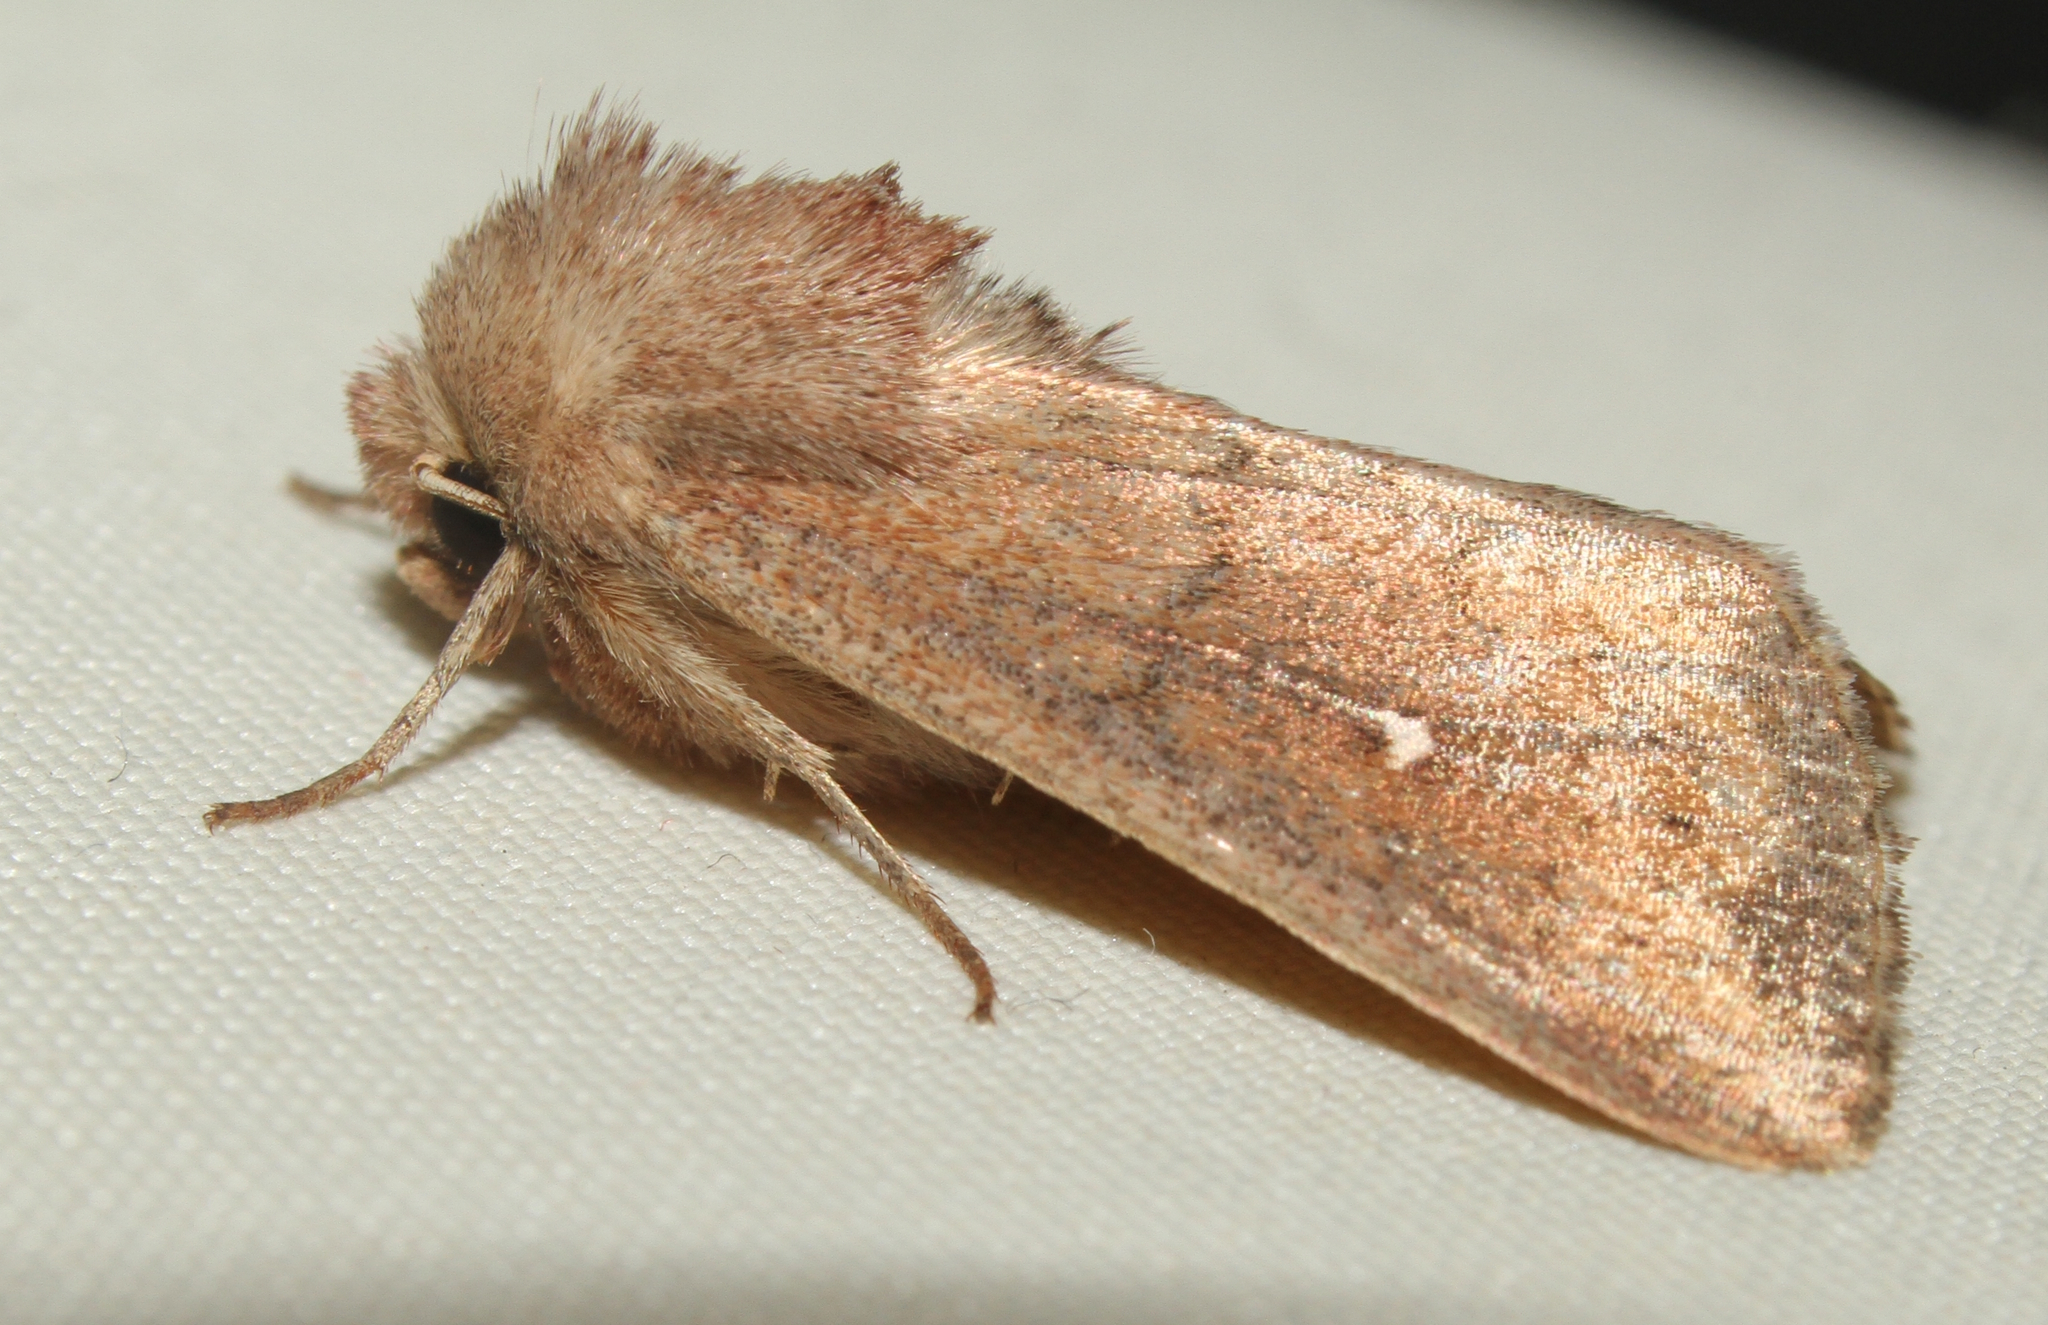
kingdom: Animalia
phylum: Arthropoda
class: Insecta
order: Lepidoptera
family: Noctuidae
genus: Mythimna
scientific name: Mythimna albipuncta
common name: White-point
